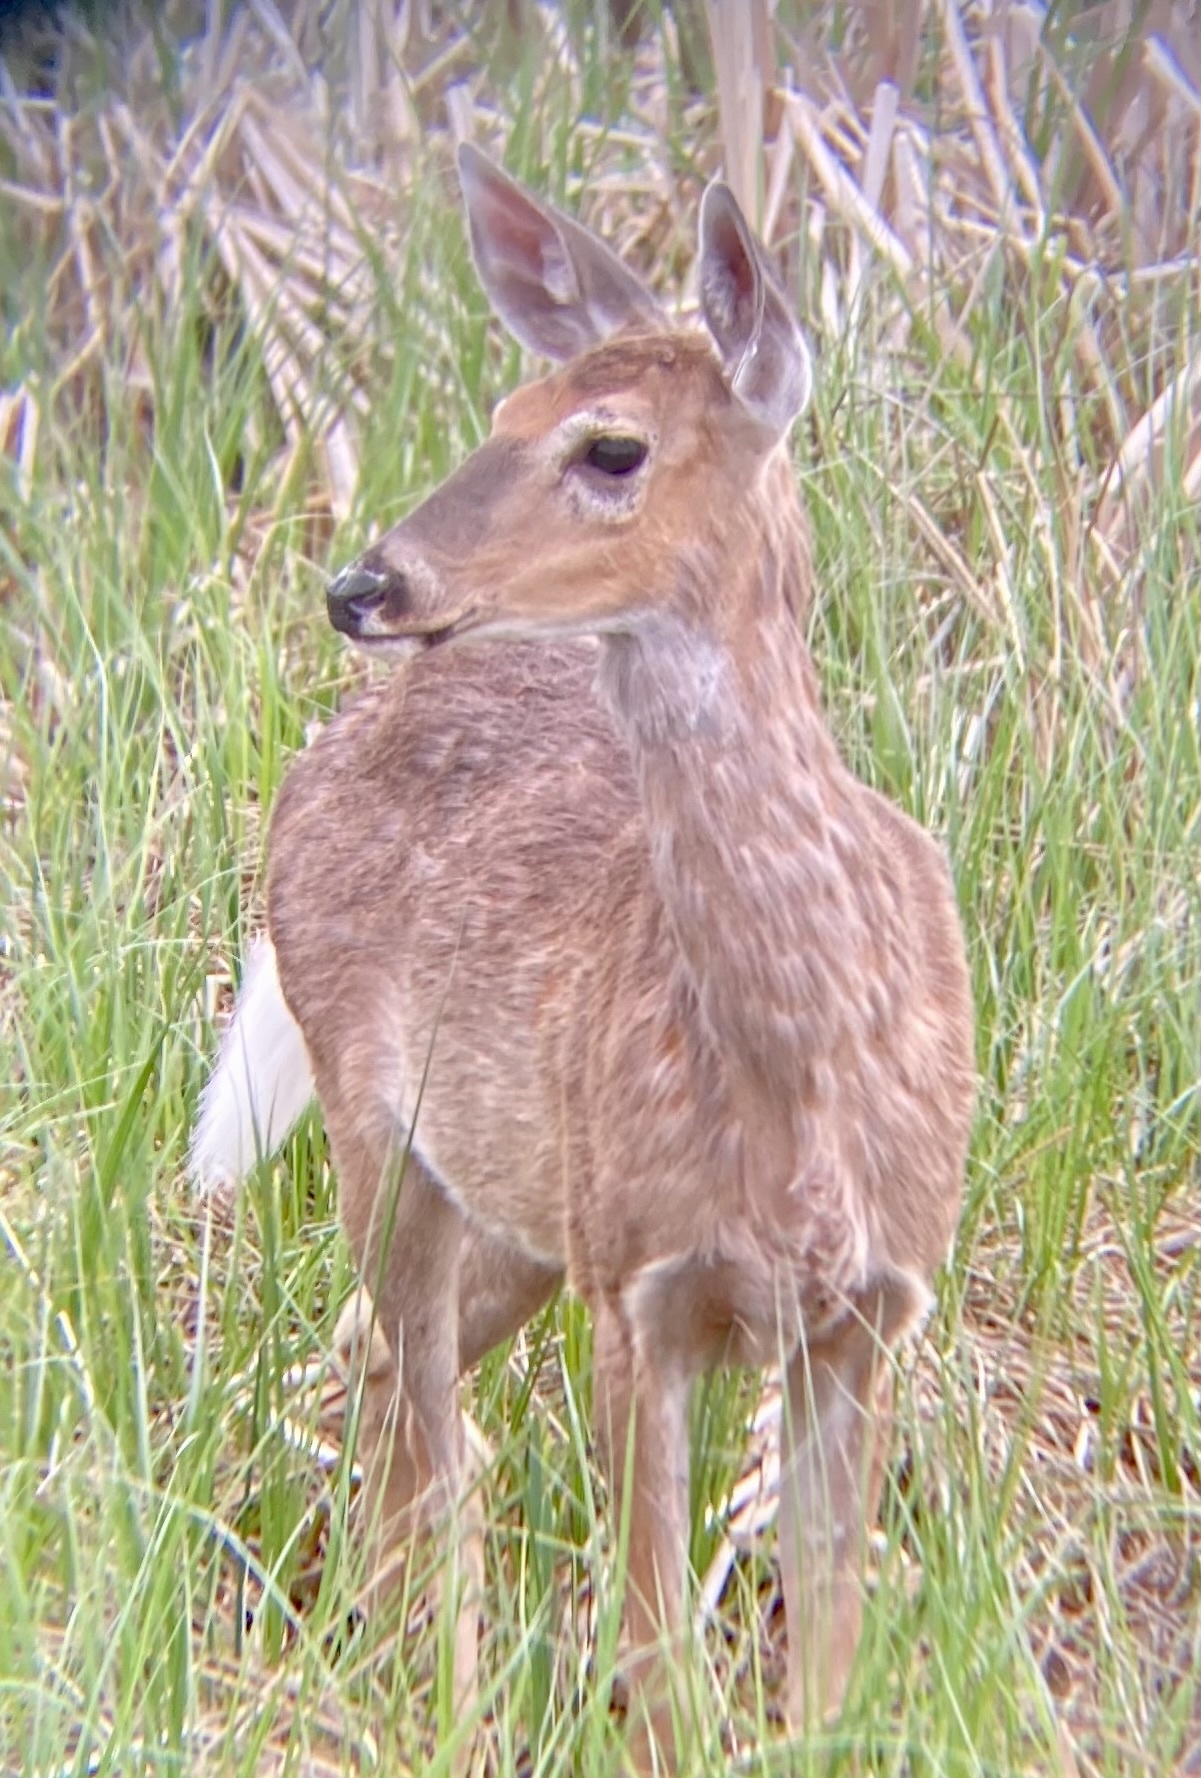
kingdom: Animalia
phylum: Chordata
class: Mammalia
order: Artiodactyla
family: Cervidae
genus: Odocoileus
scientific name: Odocoileus virginianus
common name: White-tailed deer
